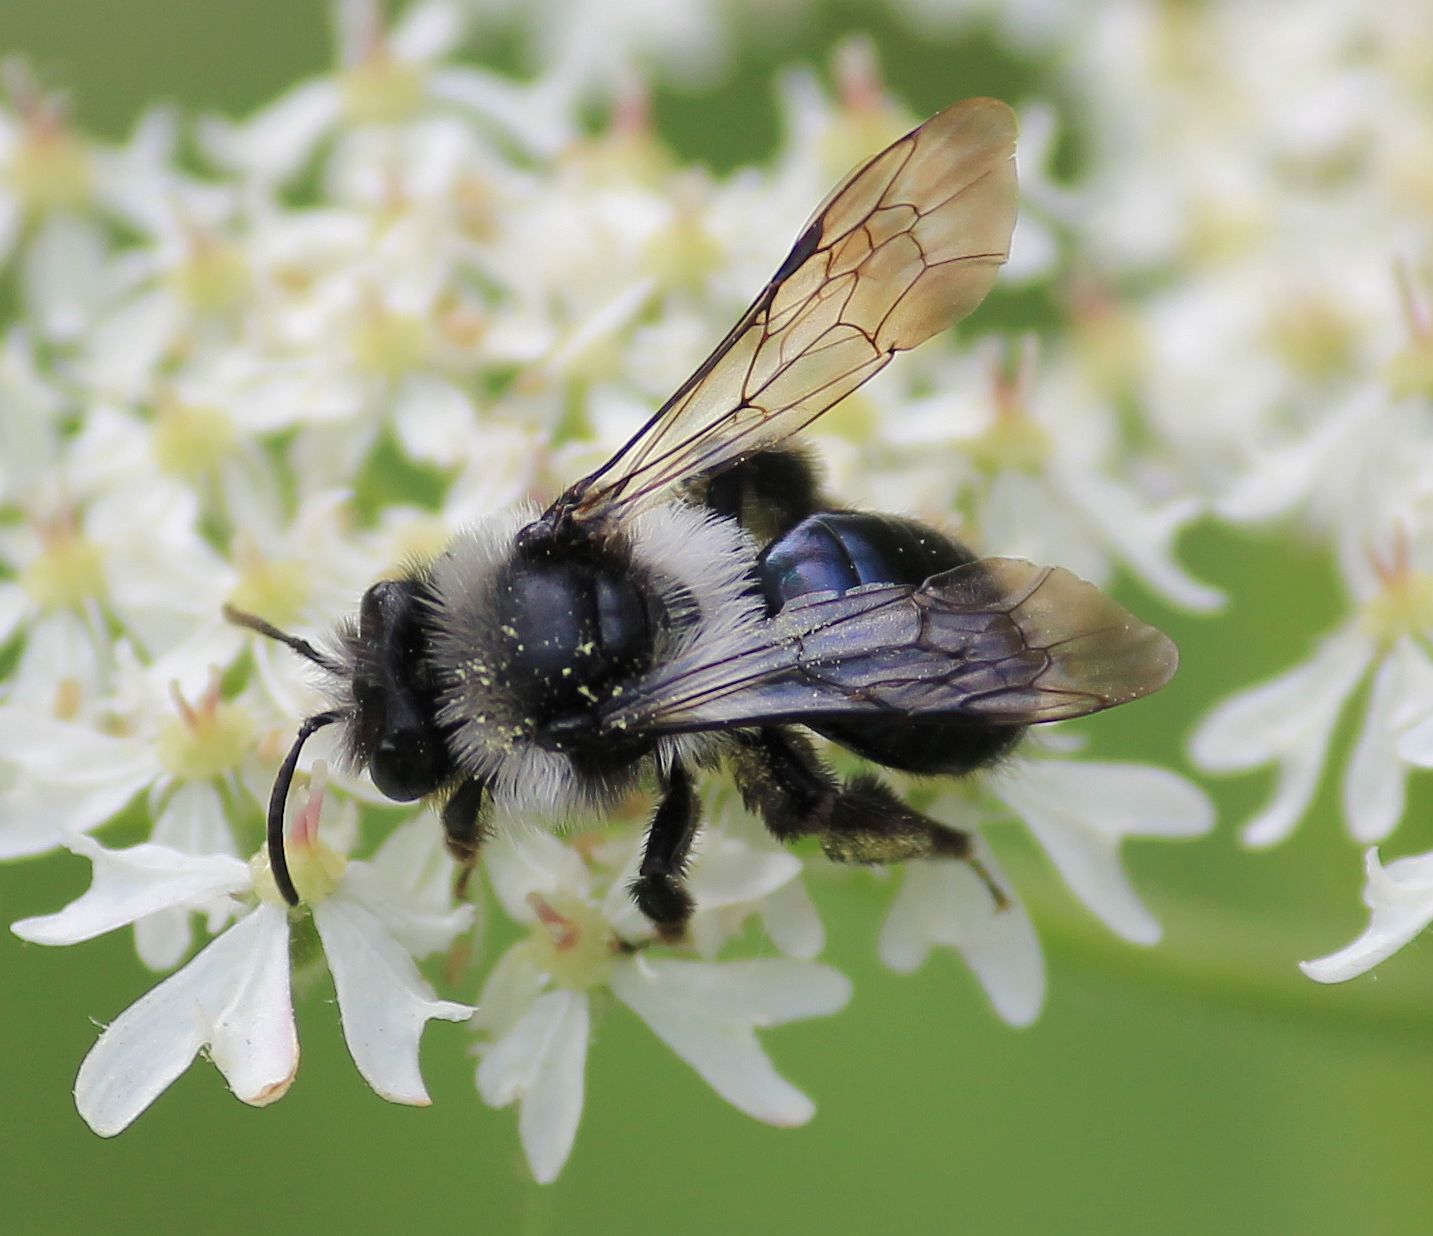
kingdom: Animalia
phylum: Arthropoda
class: Insecta
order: Hymenoptera
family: Andrenidae
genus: Andrena
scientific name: Andrena cineraria
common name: Ashy mining bee
